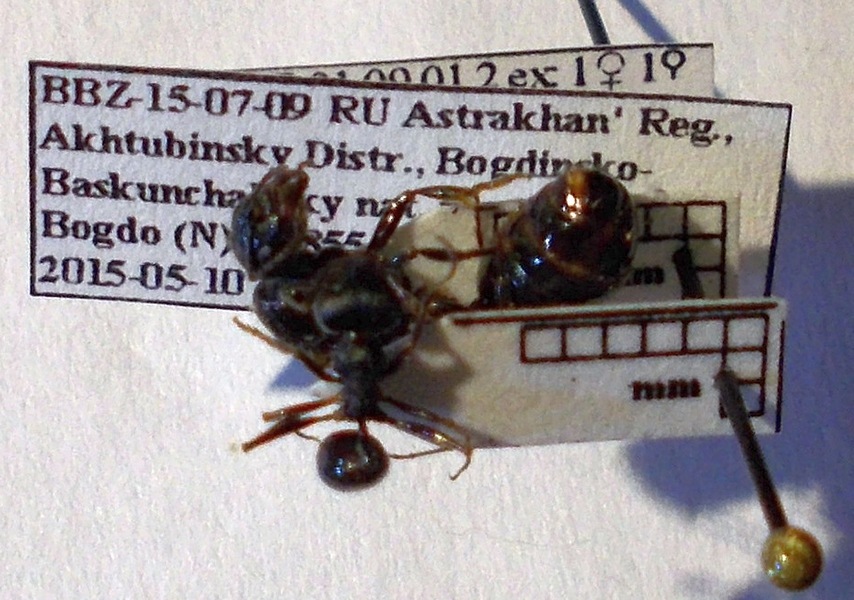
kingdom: Animalia
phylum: Arthropoda
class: Insecta
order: Hymenoptera
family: Formicidae
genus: Messor
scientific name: Messor structor
